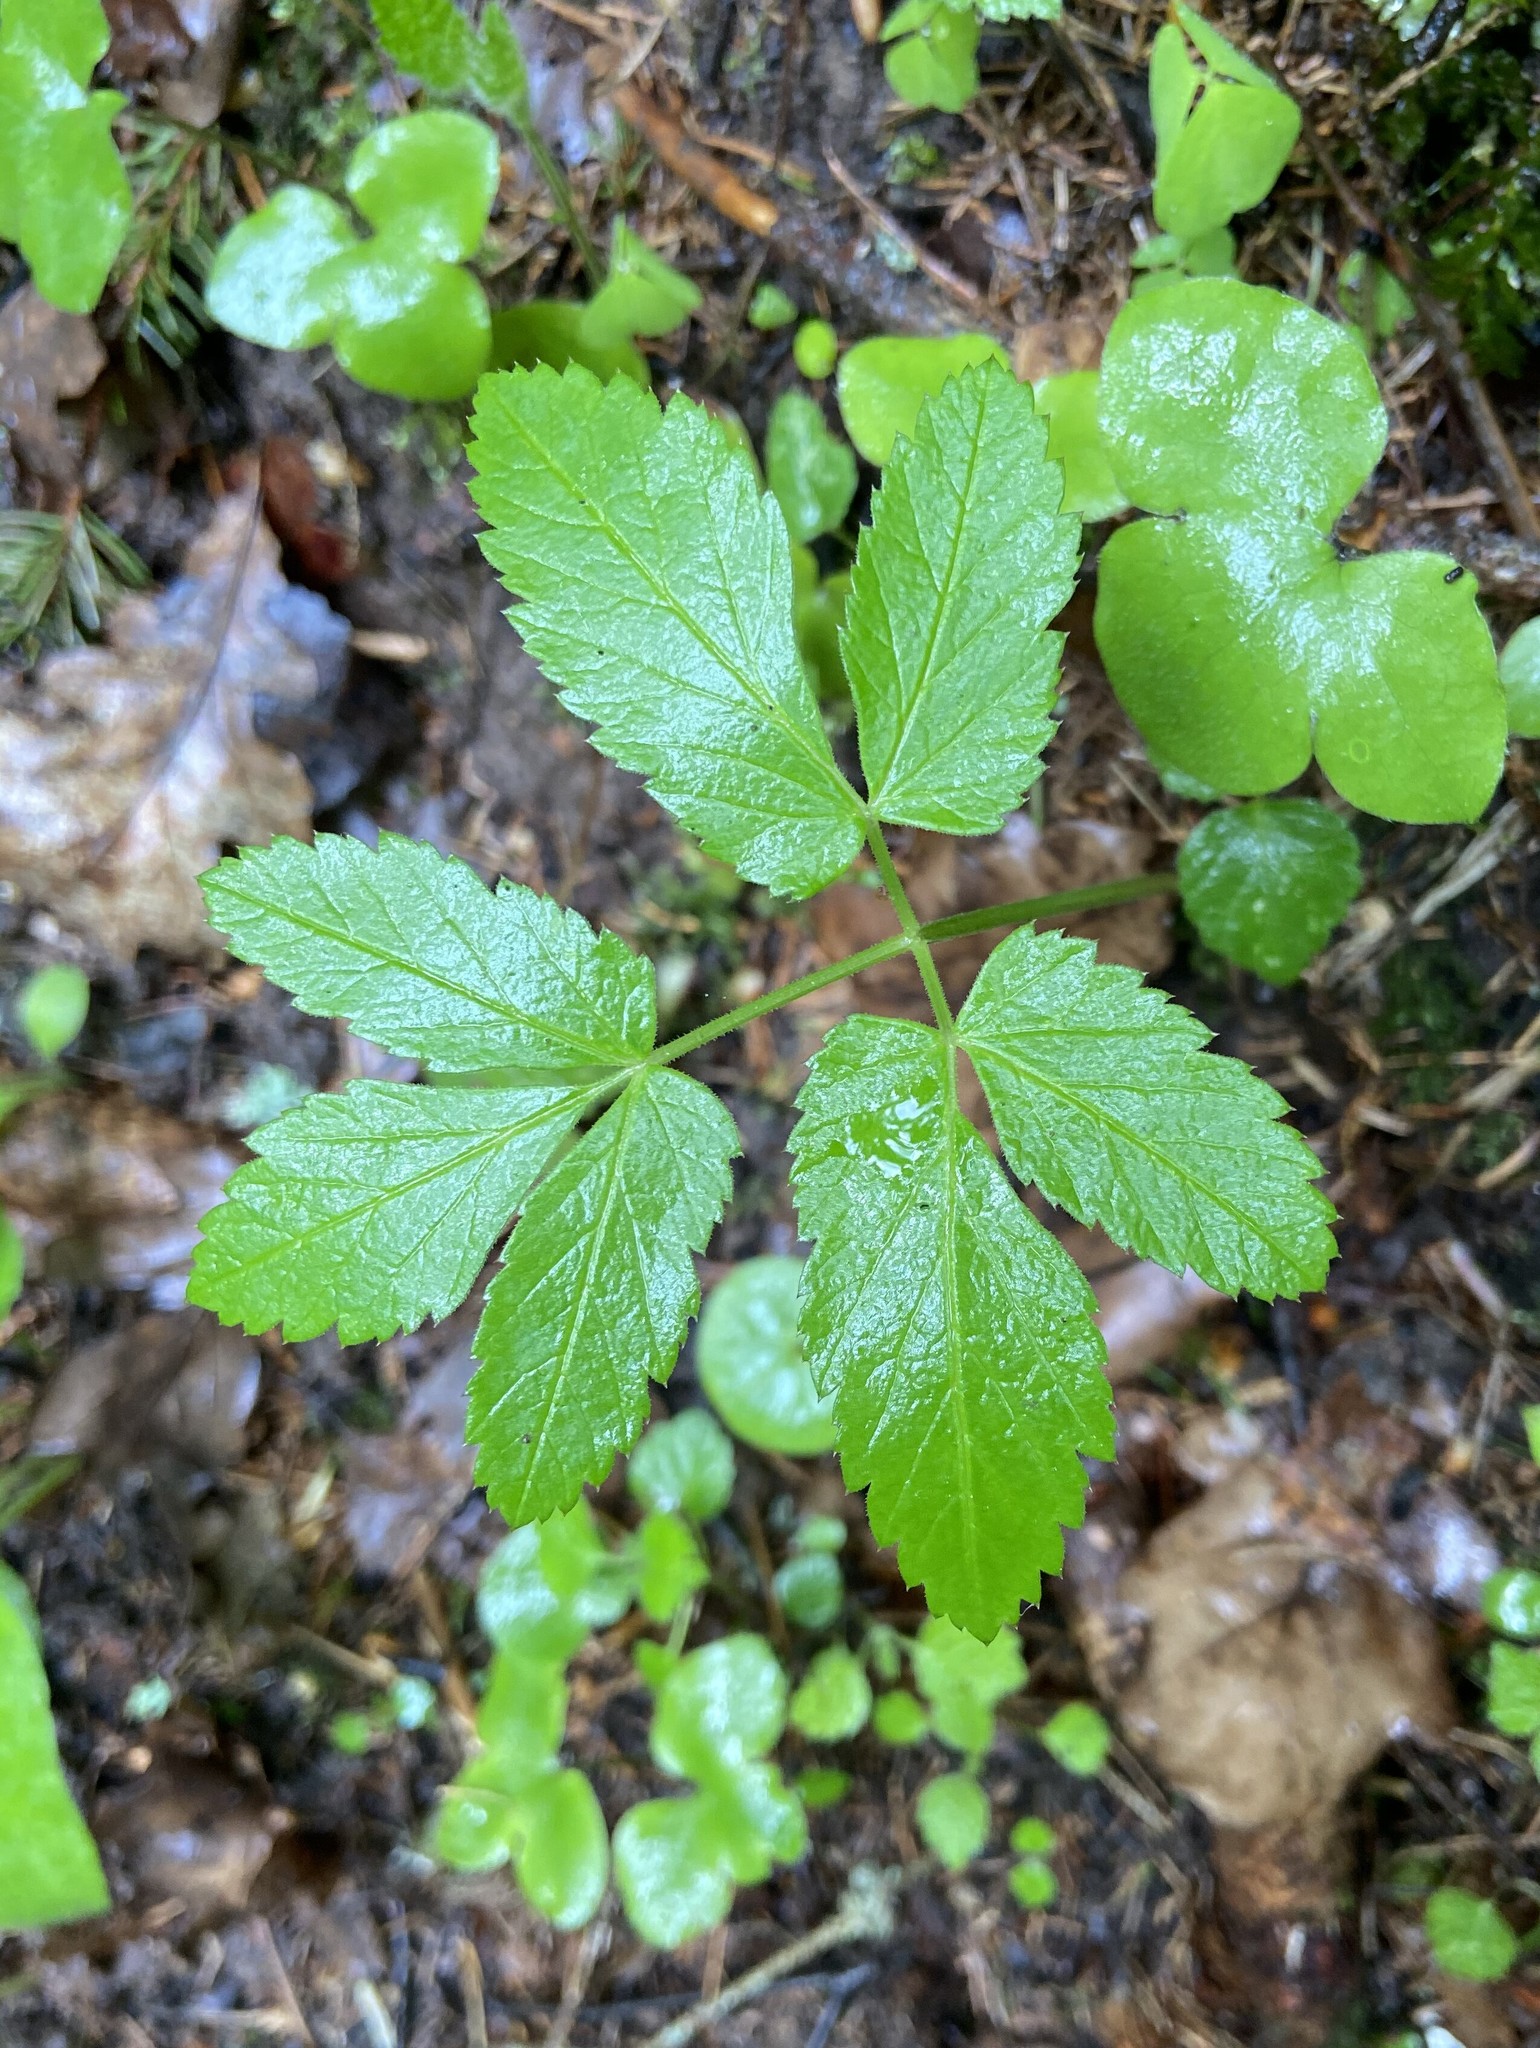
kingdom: Plantae
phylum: Tracheophyta
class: Magnoliopsida
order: Apiales
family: Apiaceae
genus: Aegopodium
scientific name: Aegopodium podagraria
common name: Ground-elder
